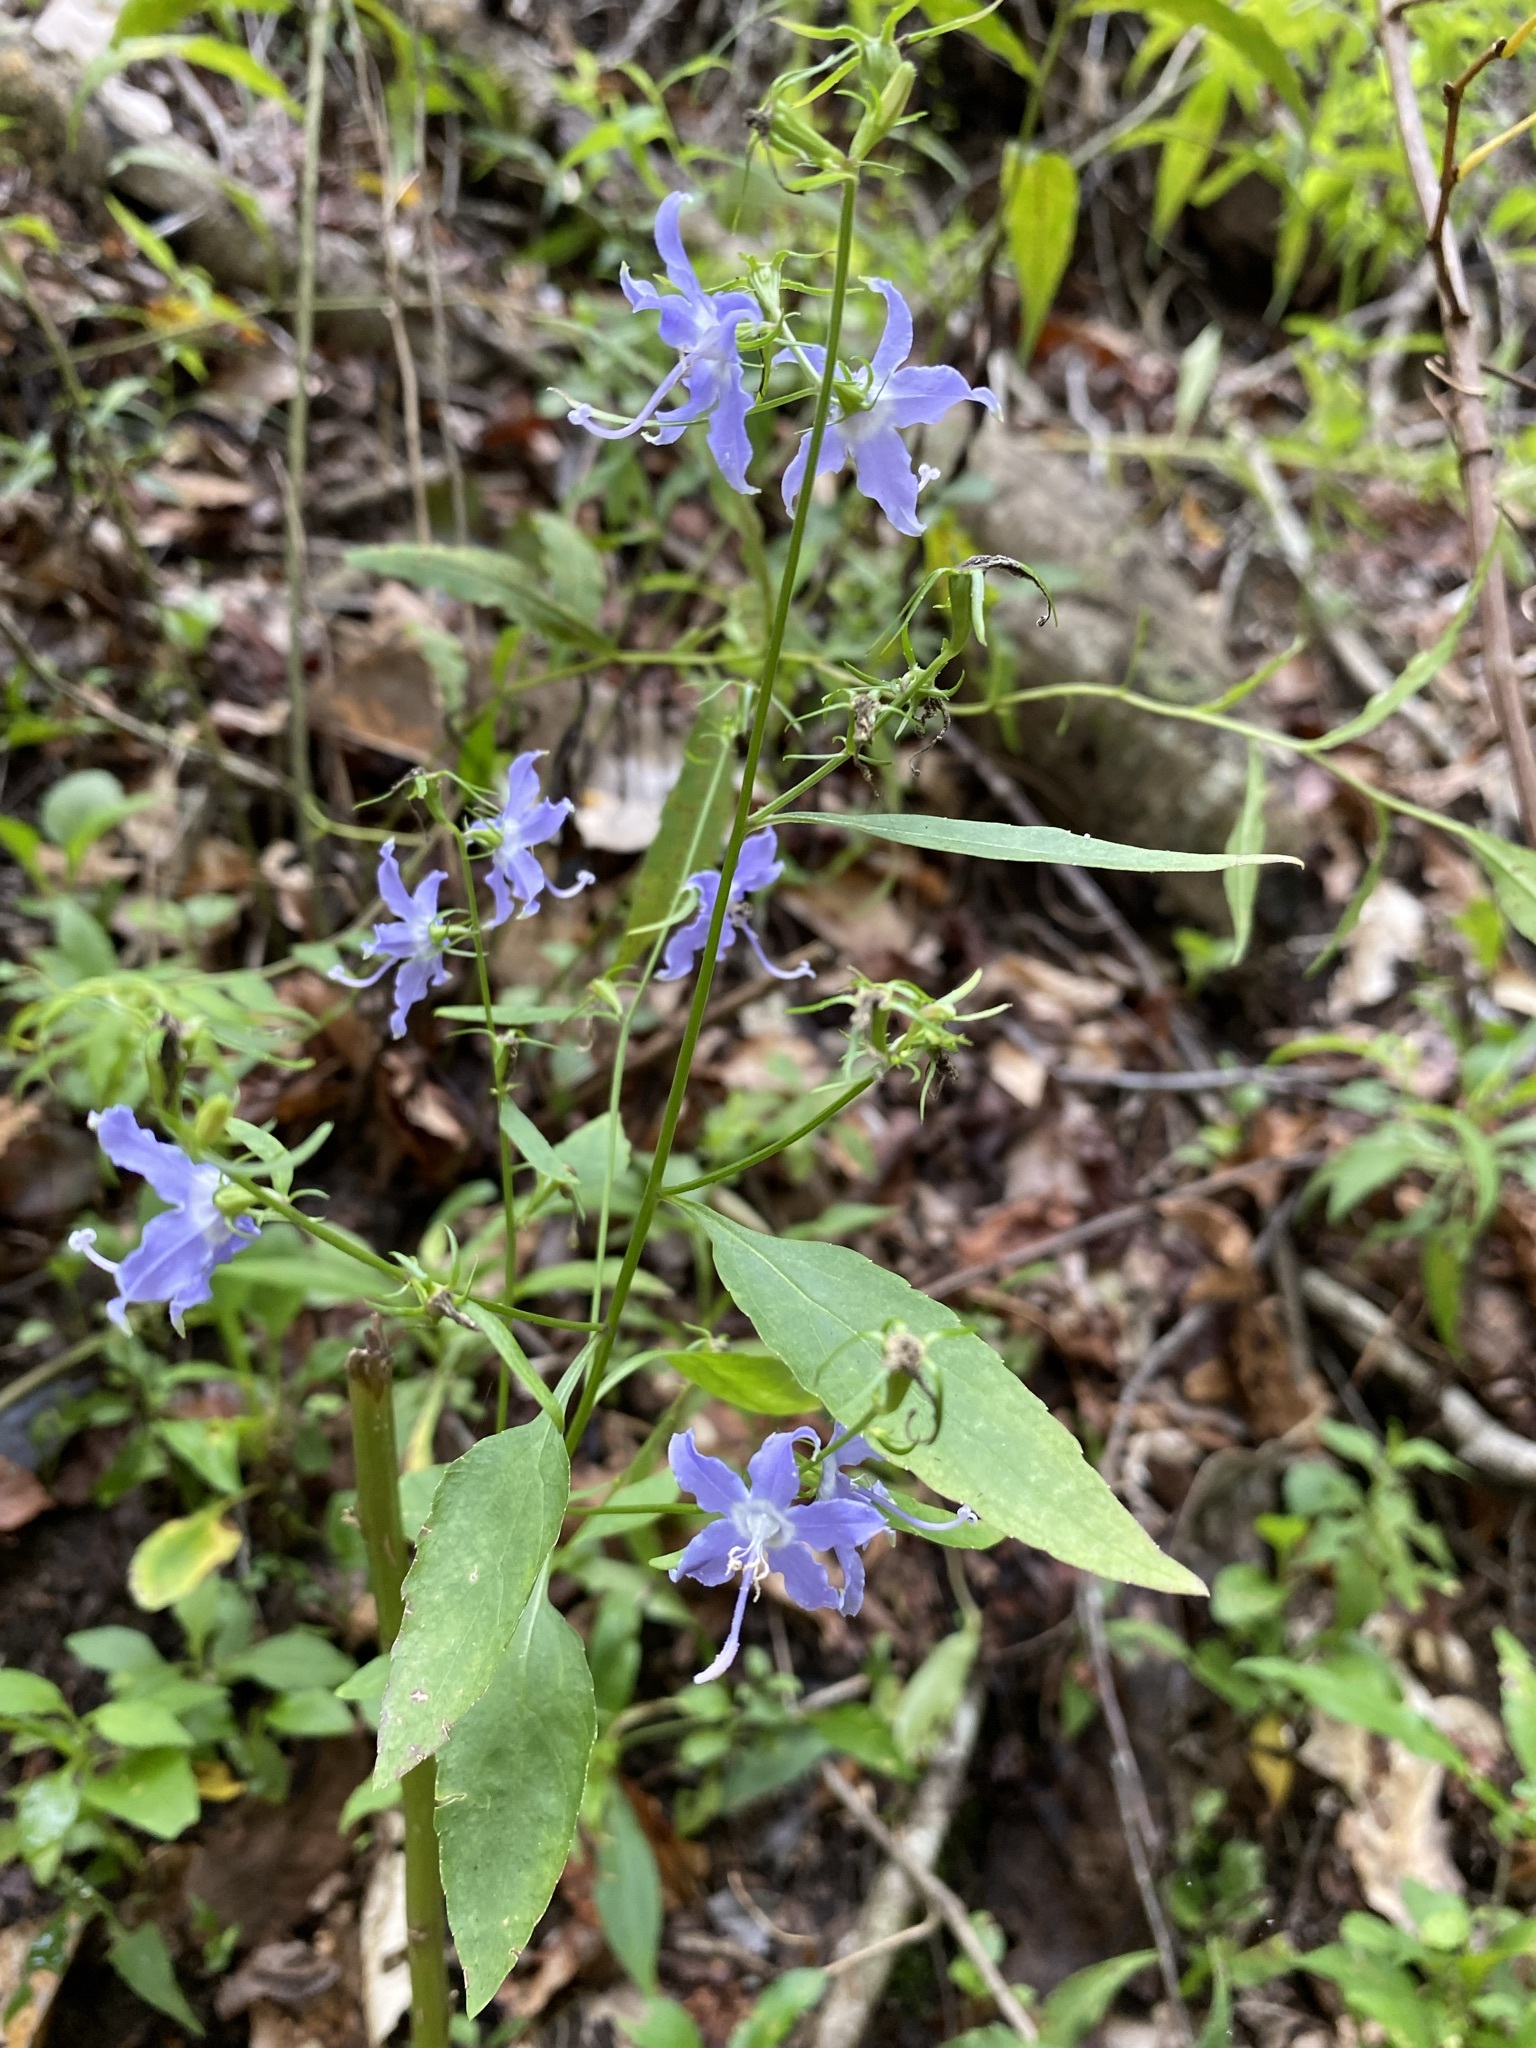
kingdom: Plantae
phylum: Tracheophyta
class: Magnoliopsida
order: Asterales
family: Campanulaceae
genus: Campanulastrum
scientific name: Campanulastrum americanum
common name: American bellflower
